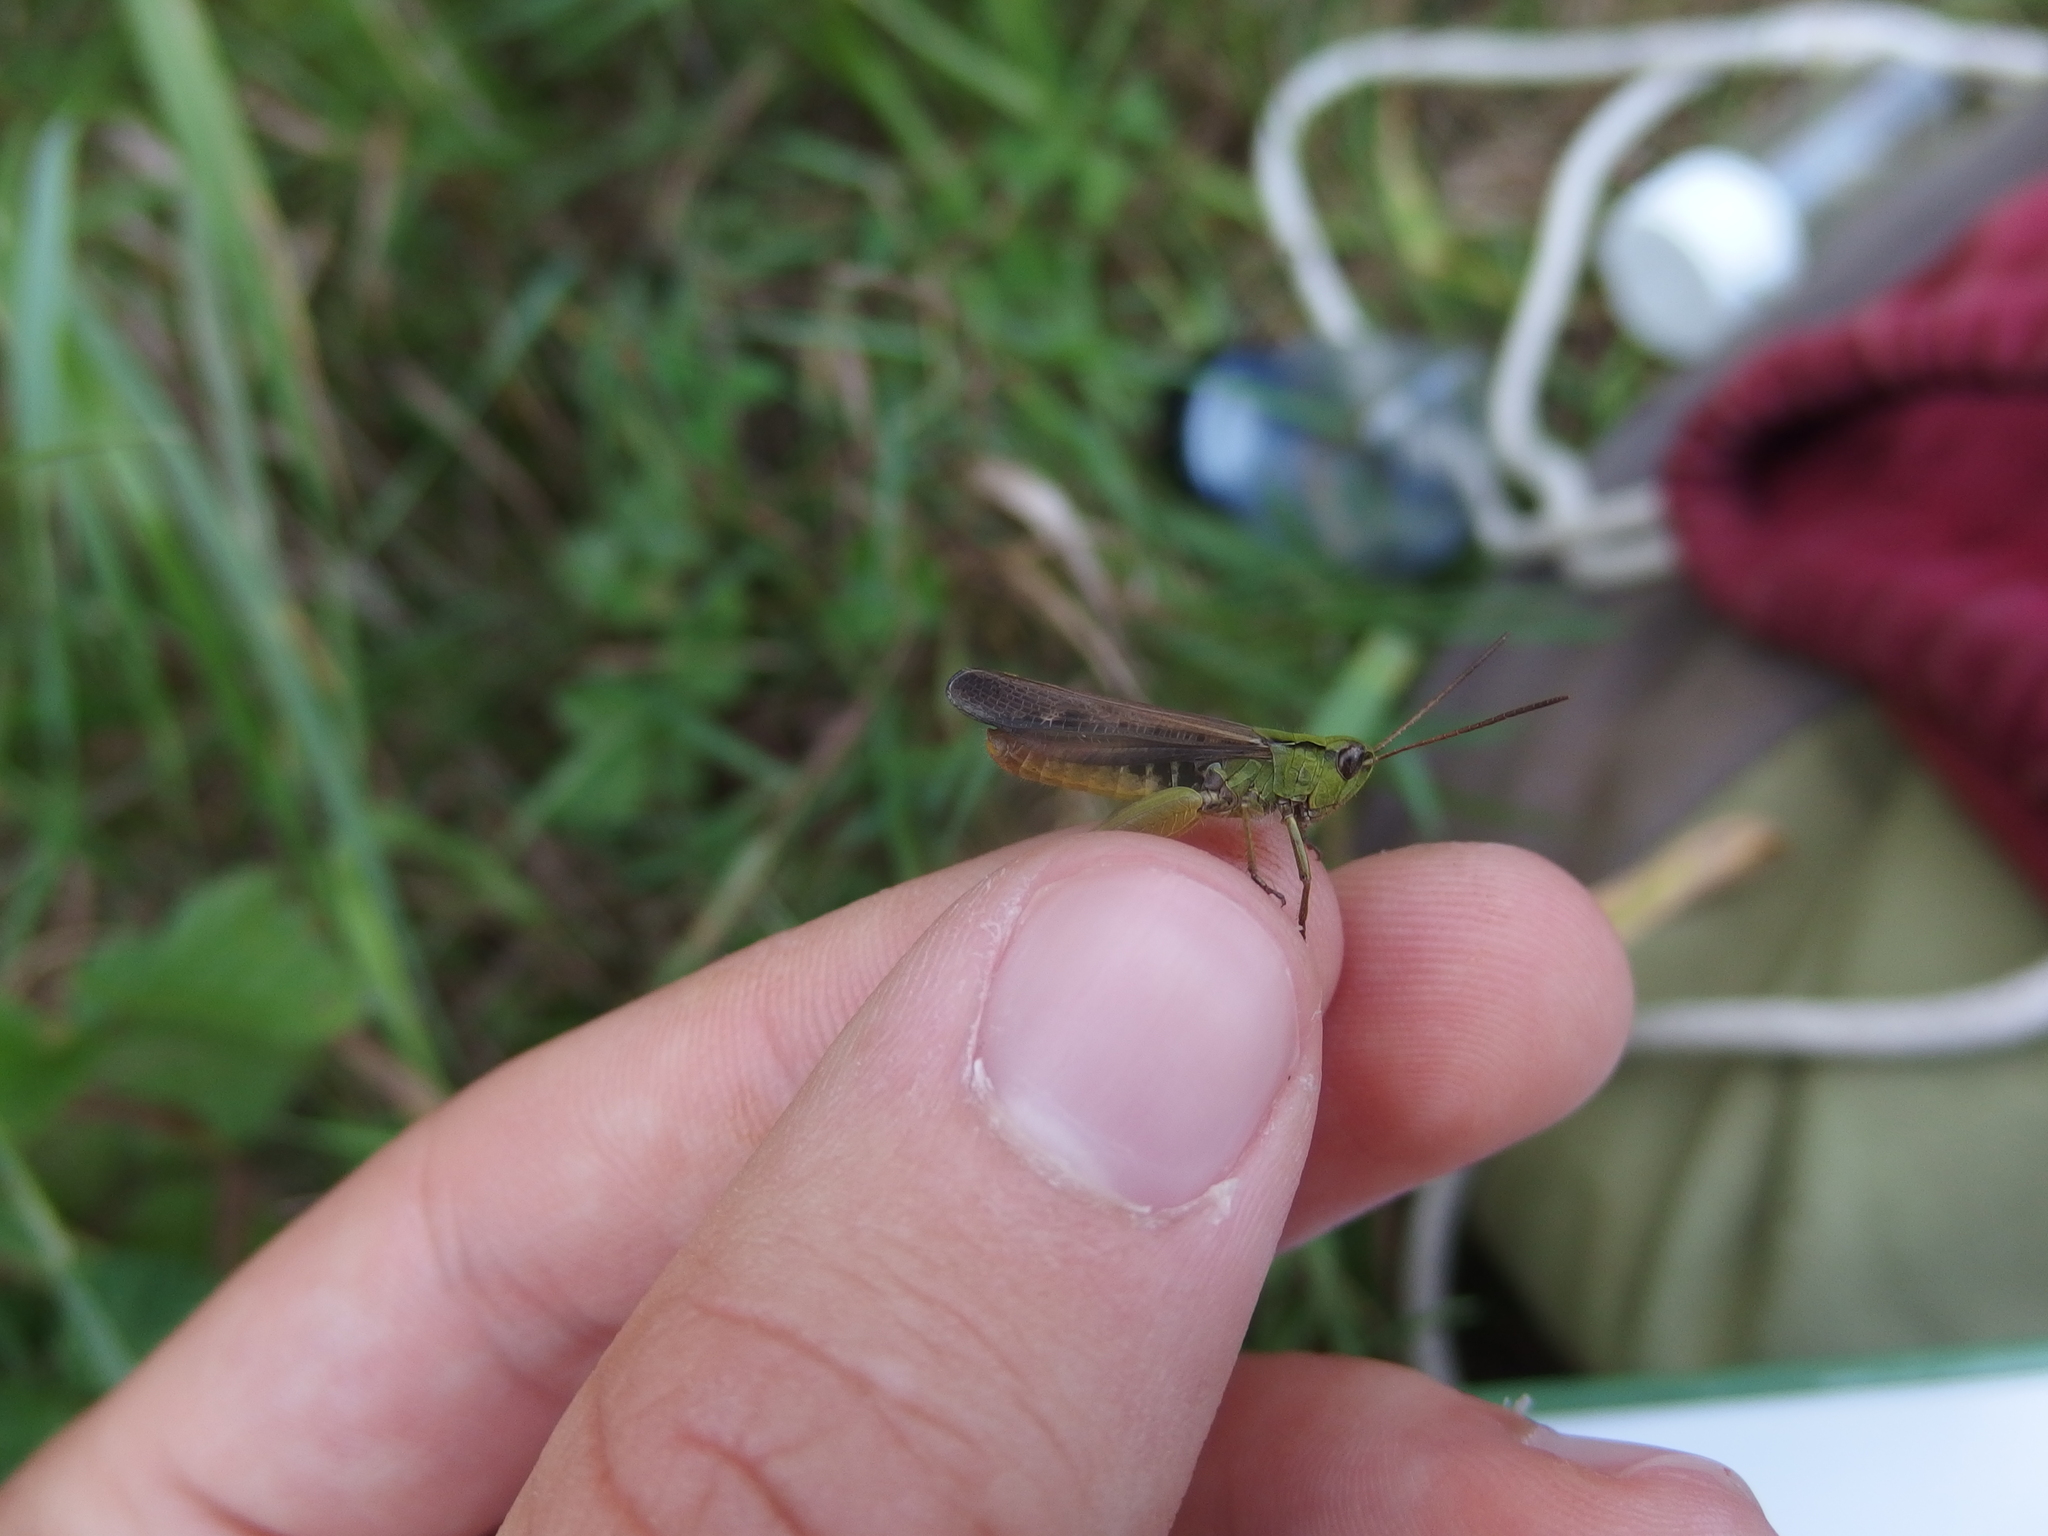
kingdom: Animalia
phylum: Arthropoda
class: Insecta
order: Orthoptera
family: Acrididae
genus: Chorthippus
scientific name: Chorthippus biguttulus
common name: Bow-winged grasshopper
